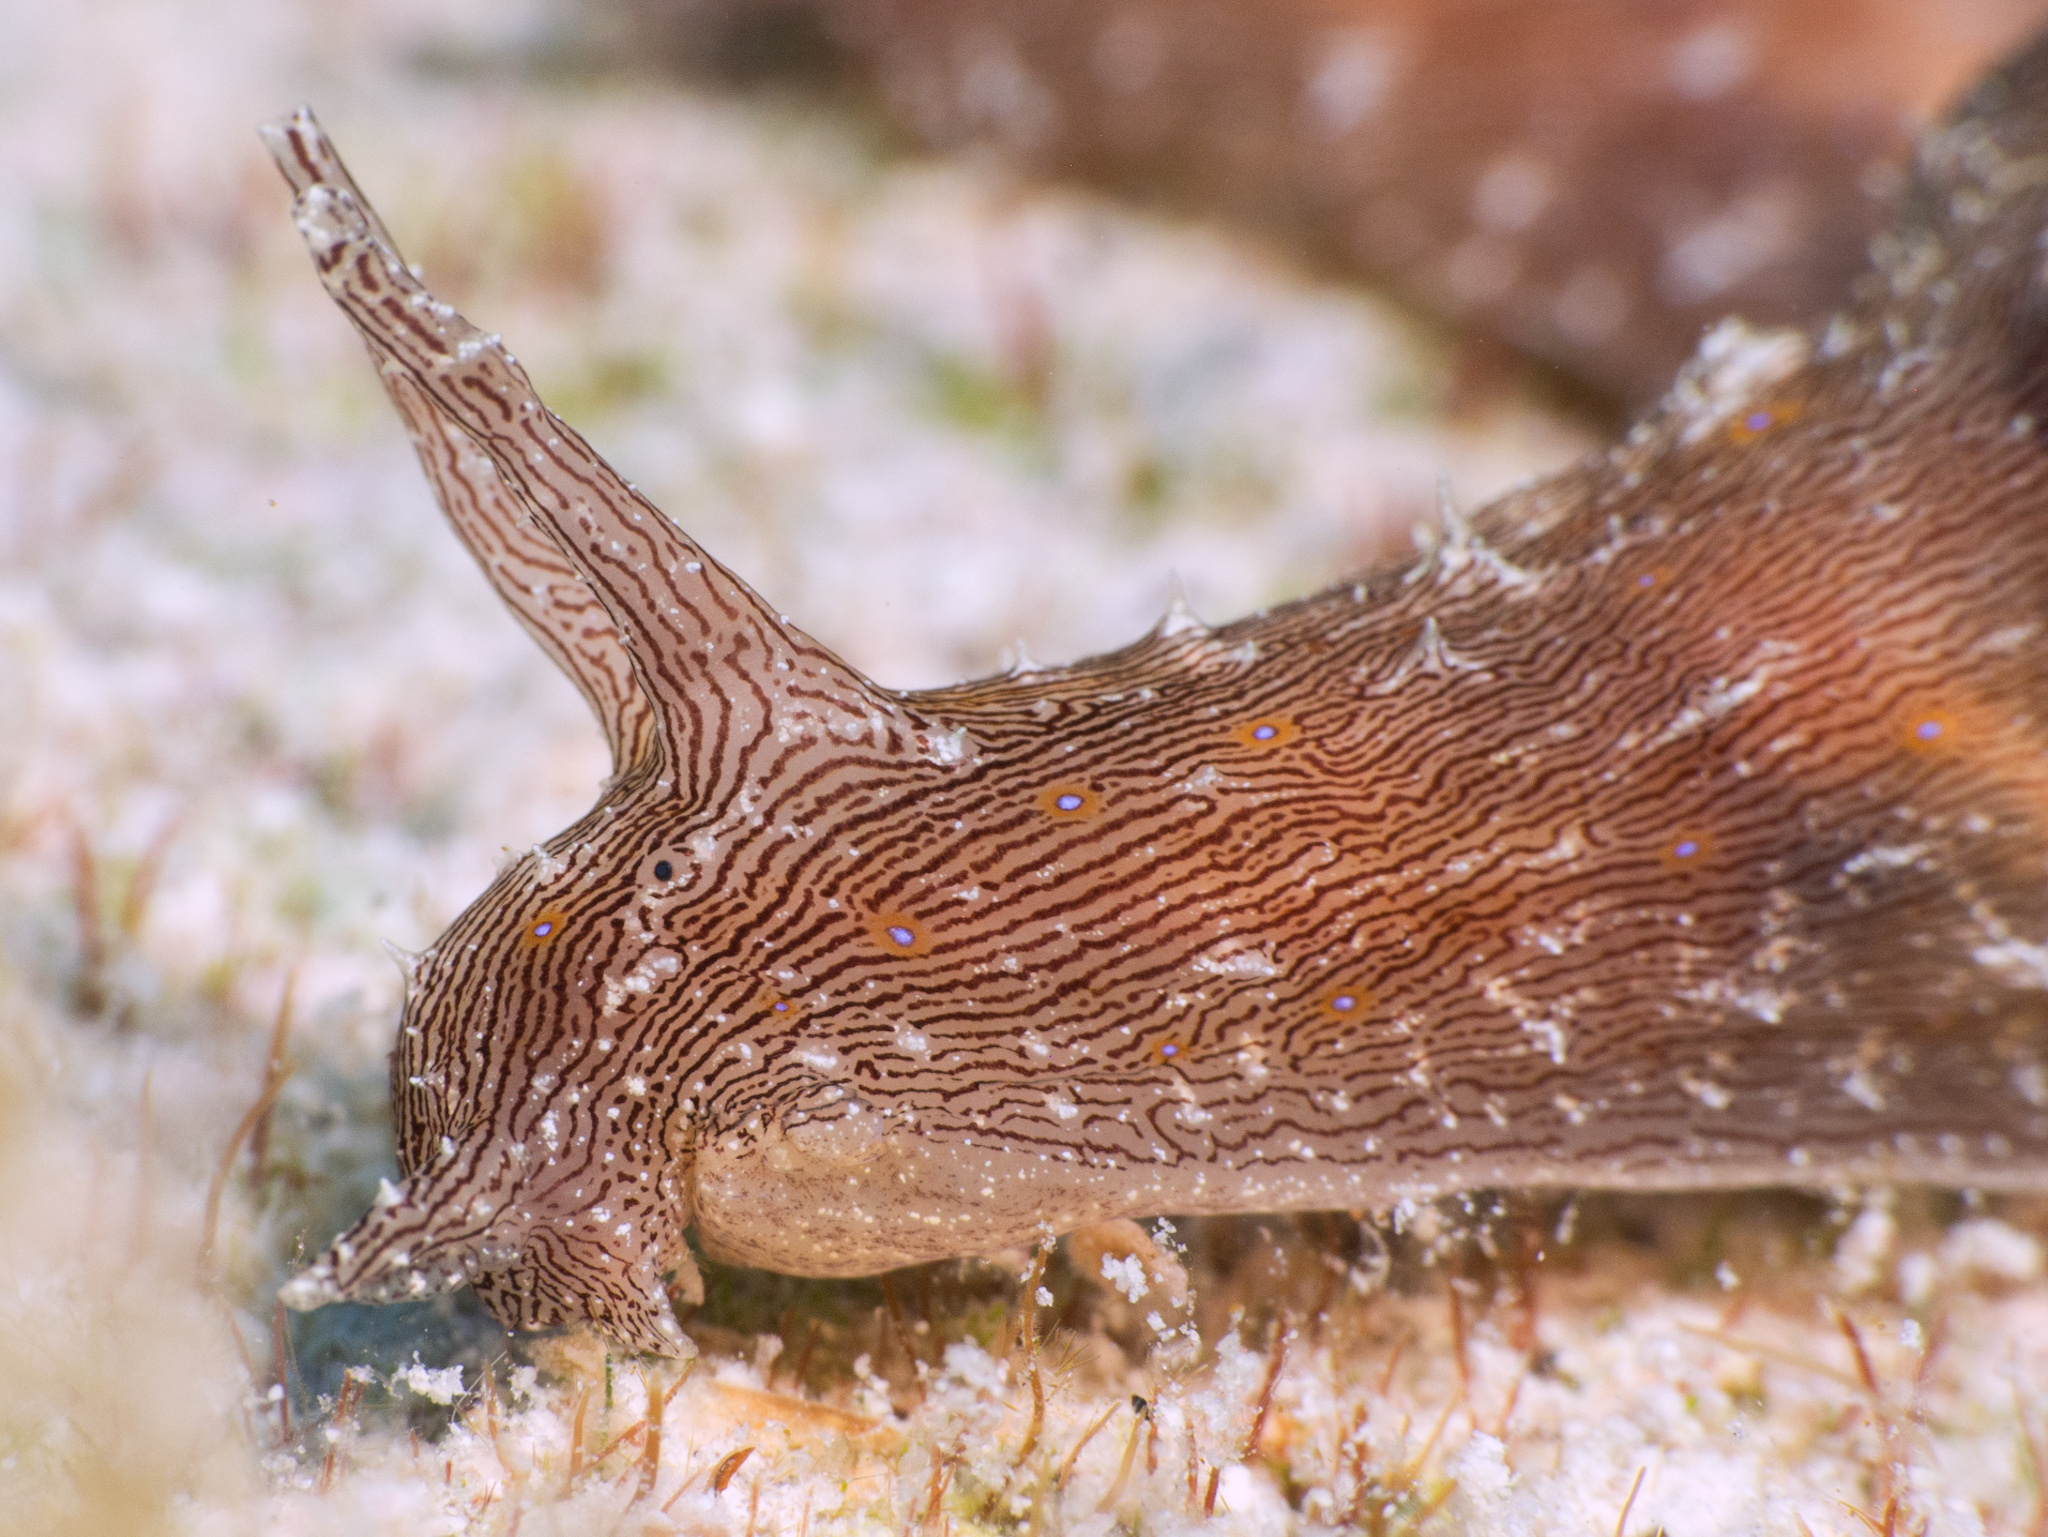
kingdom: Animalia
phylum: Mollusca
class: Gastropoda
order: Aplysiida
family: Aplysiidae
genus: Stylocheilus
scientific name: Stylocheilus polyomma
